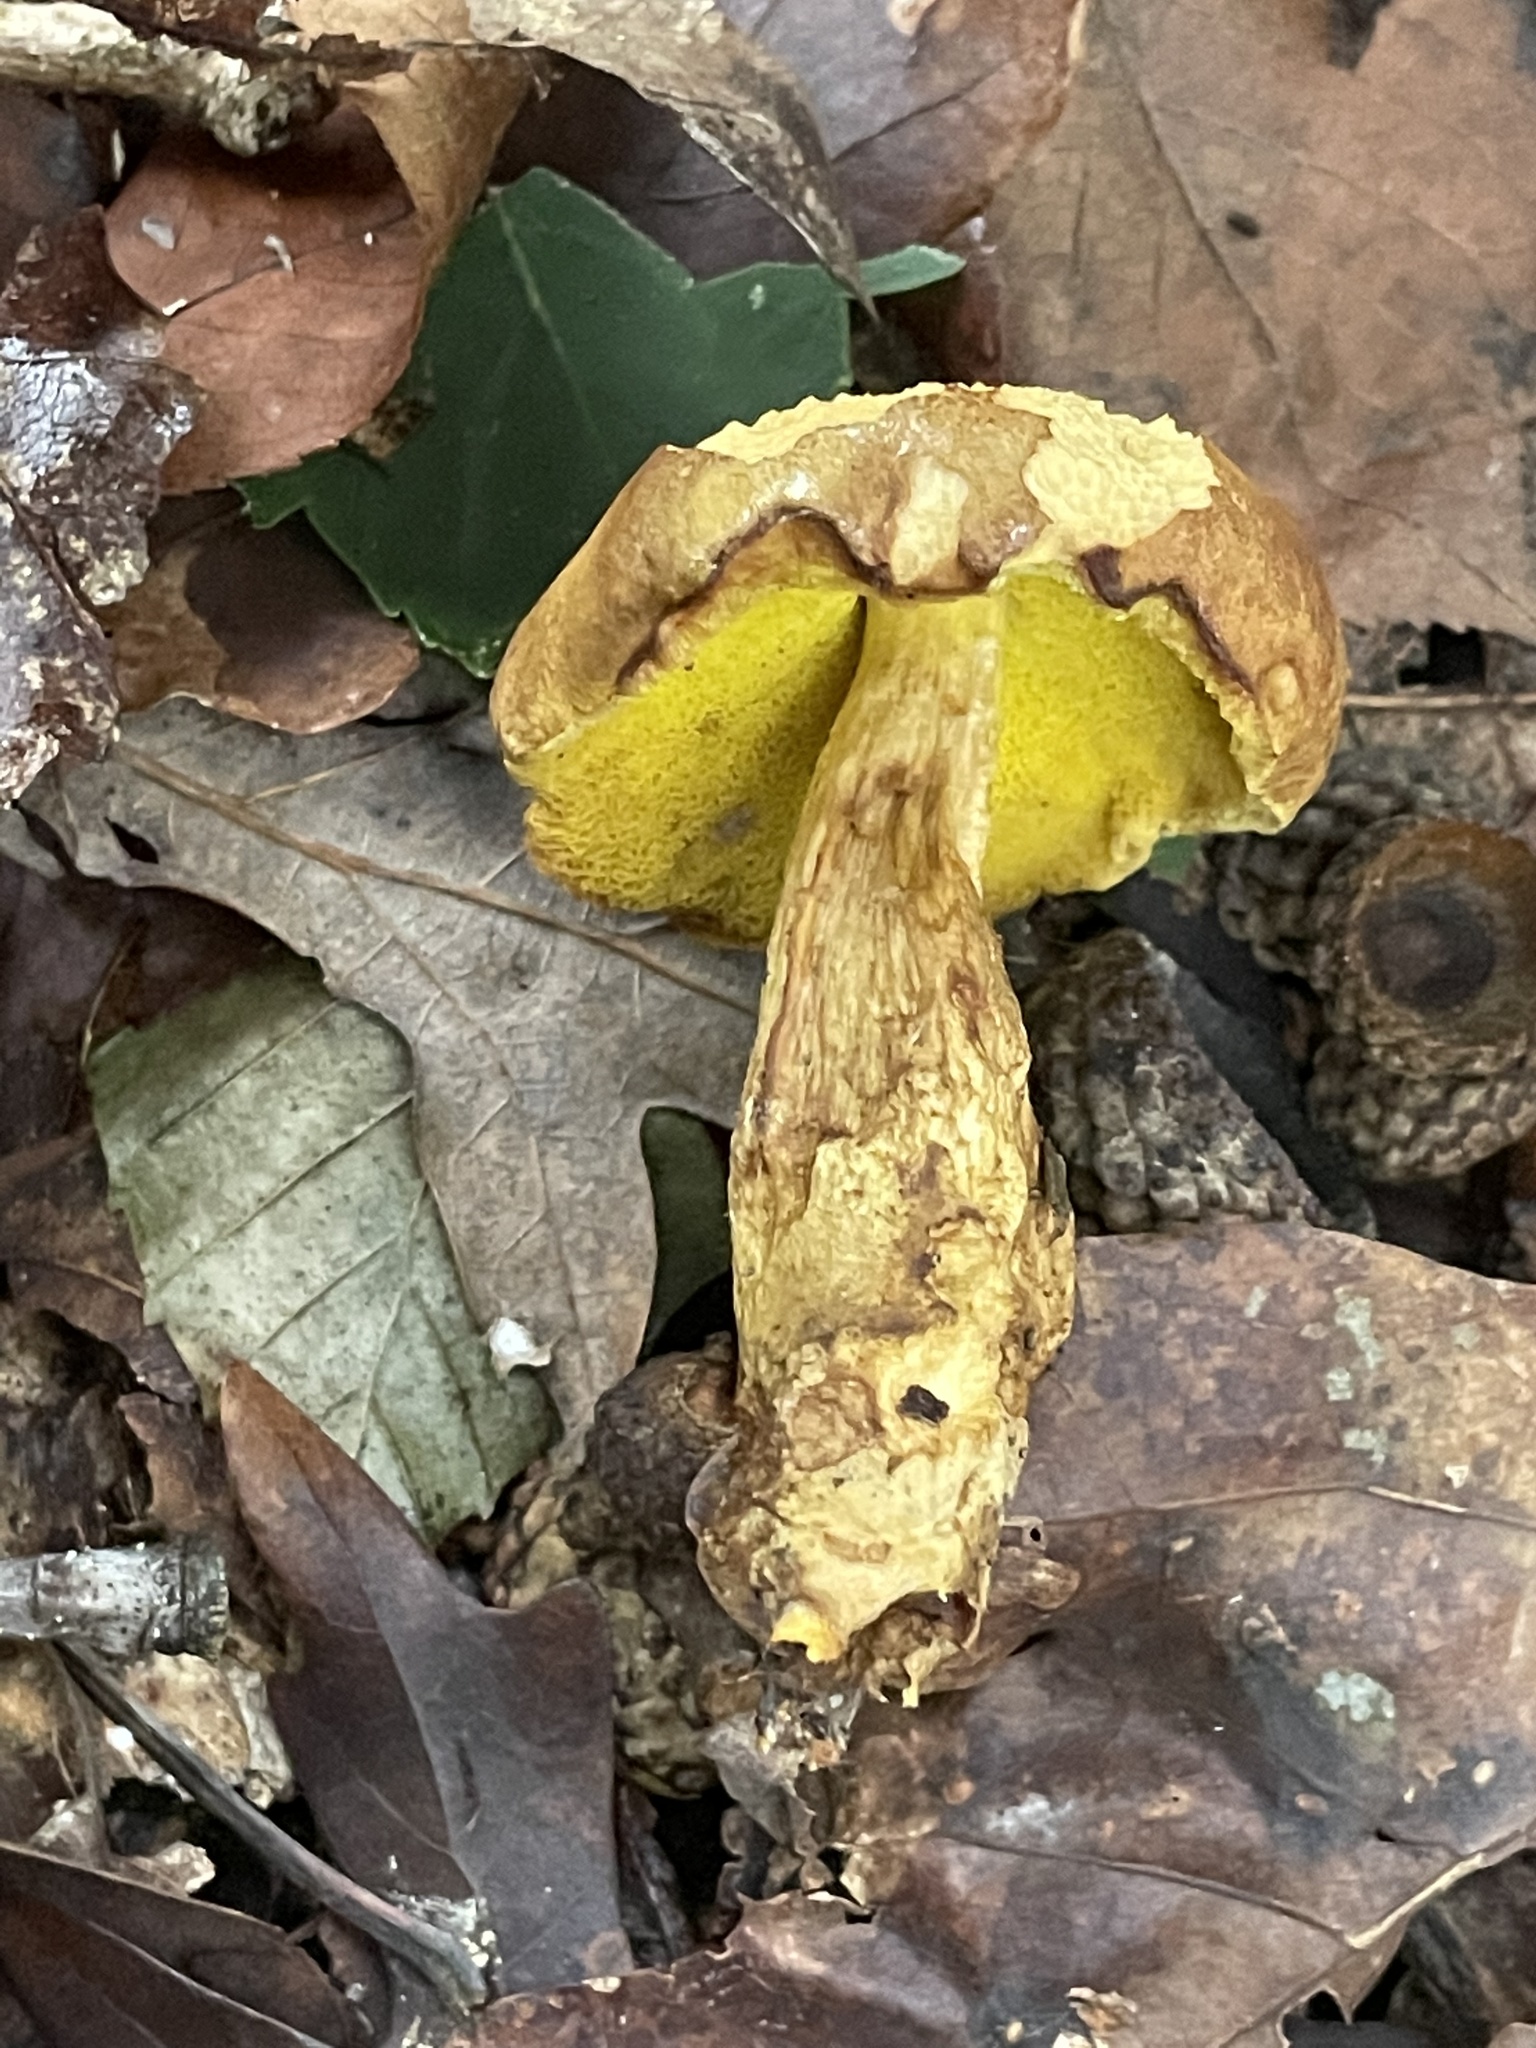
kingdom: Fungi
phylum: Basidiomycota
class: Agaricomycetes
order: Boletales
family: Boletaceae
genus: Aureoboletus
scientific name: Aureoboletus innixus
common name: Clustered brown bolete
